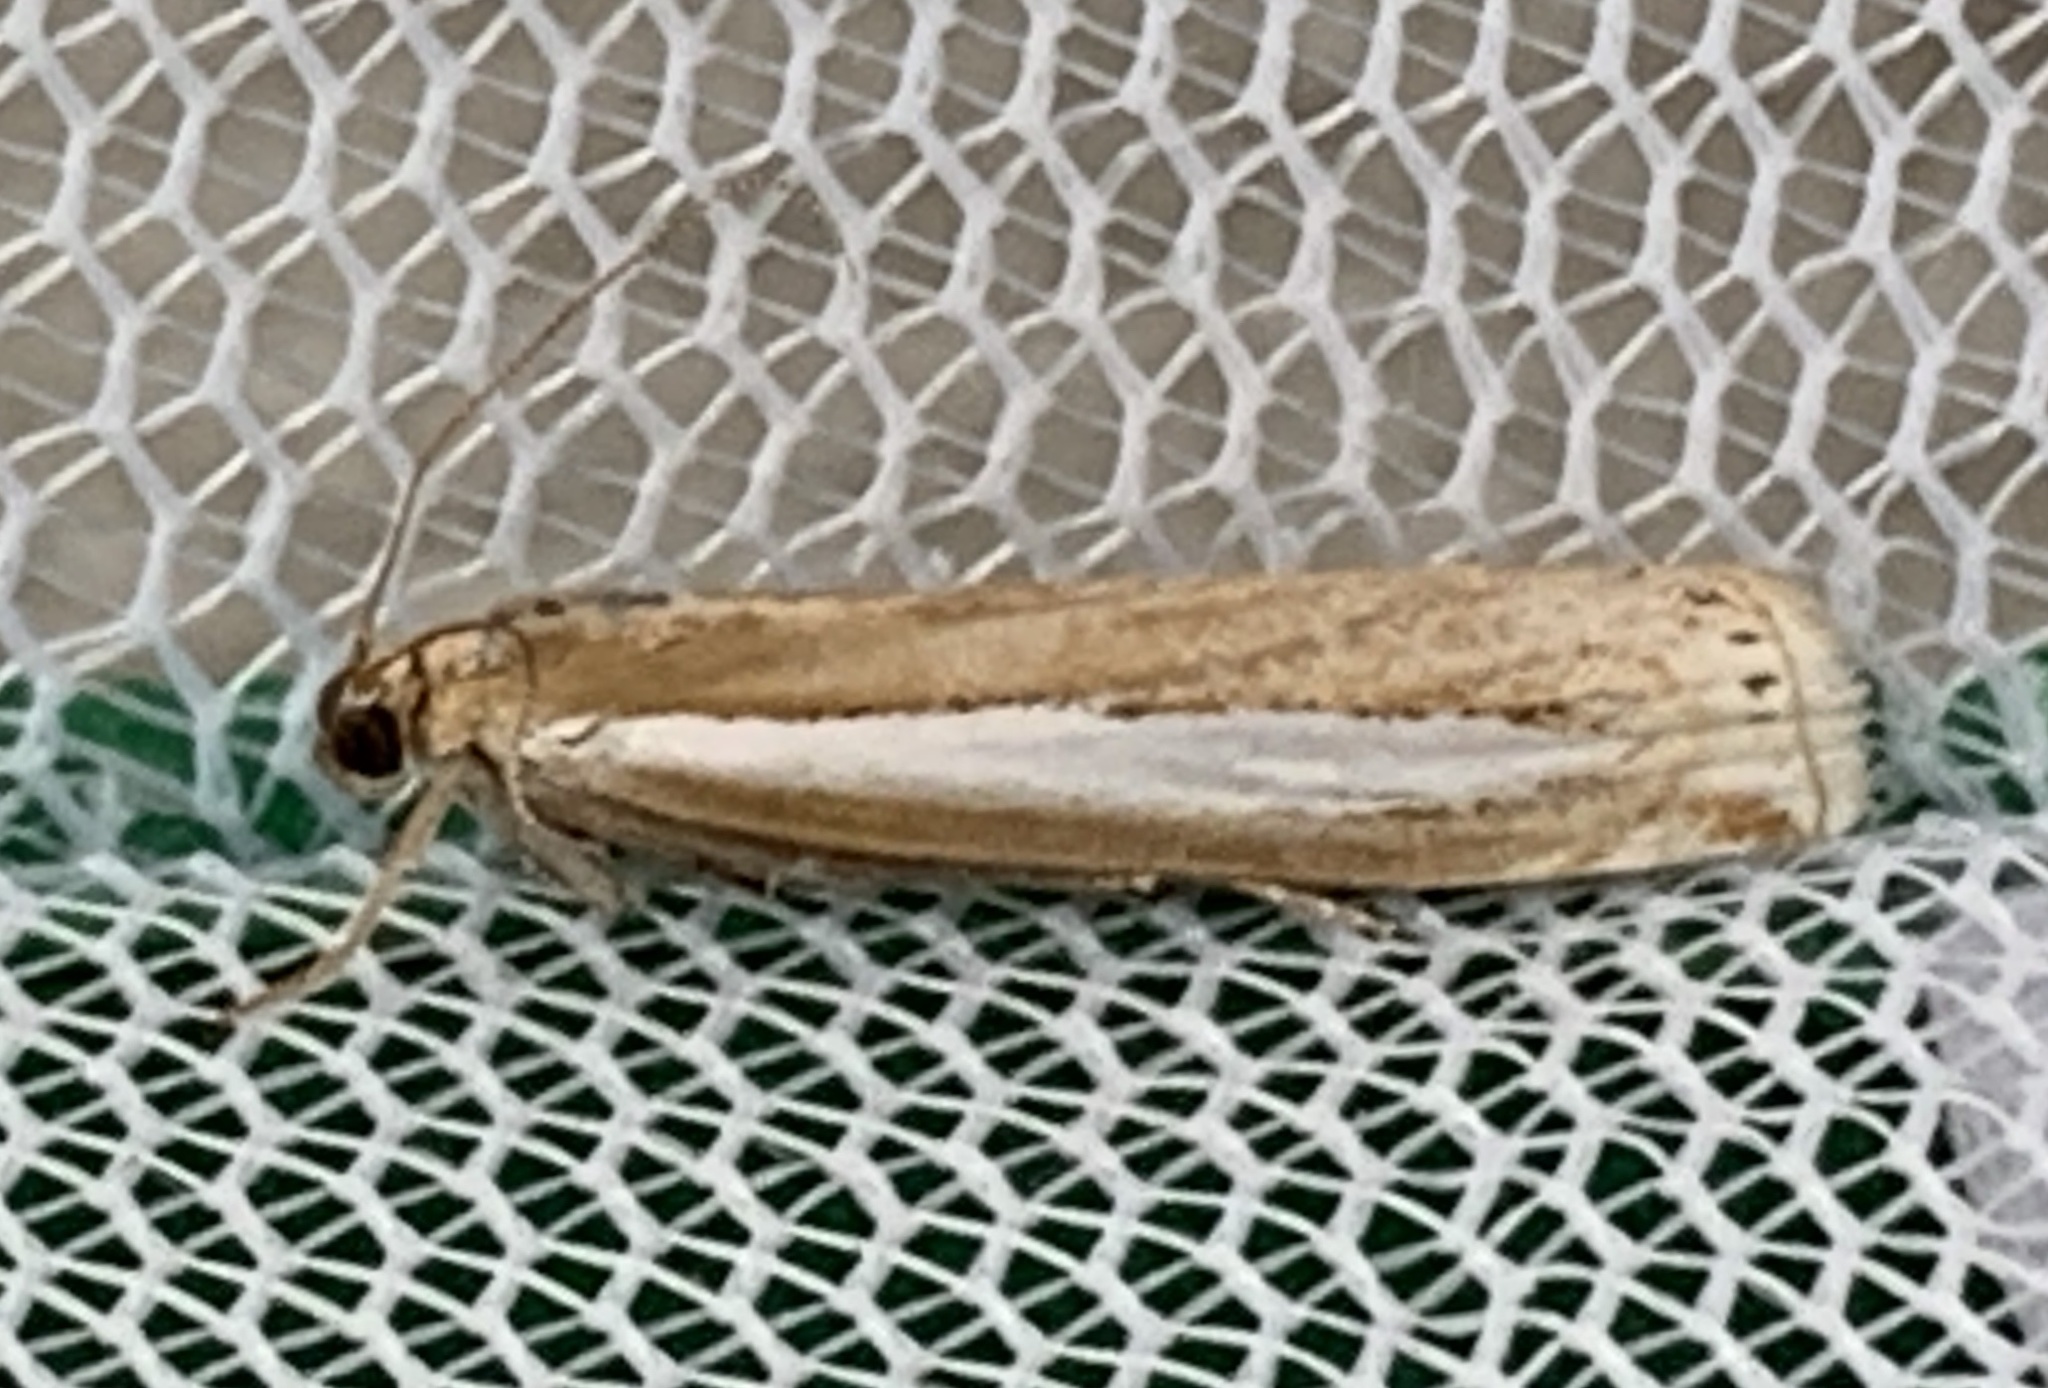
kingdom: Animalia
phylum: Arthropoda
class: Insecta
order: Lepidoptera
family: Crambidae
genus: Crambus
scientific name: Crambus praefectellus
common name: Common grass-veneer
